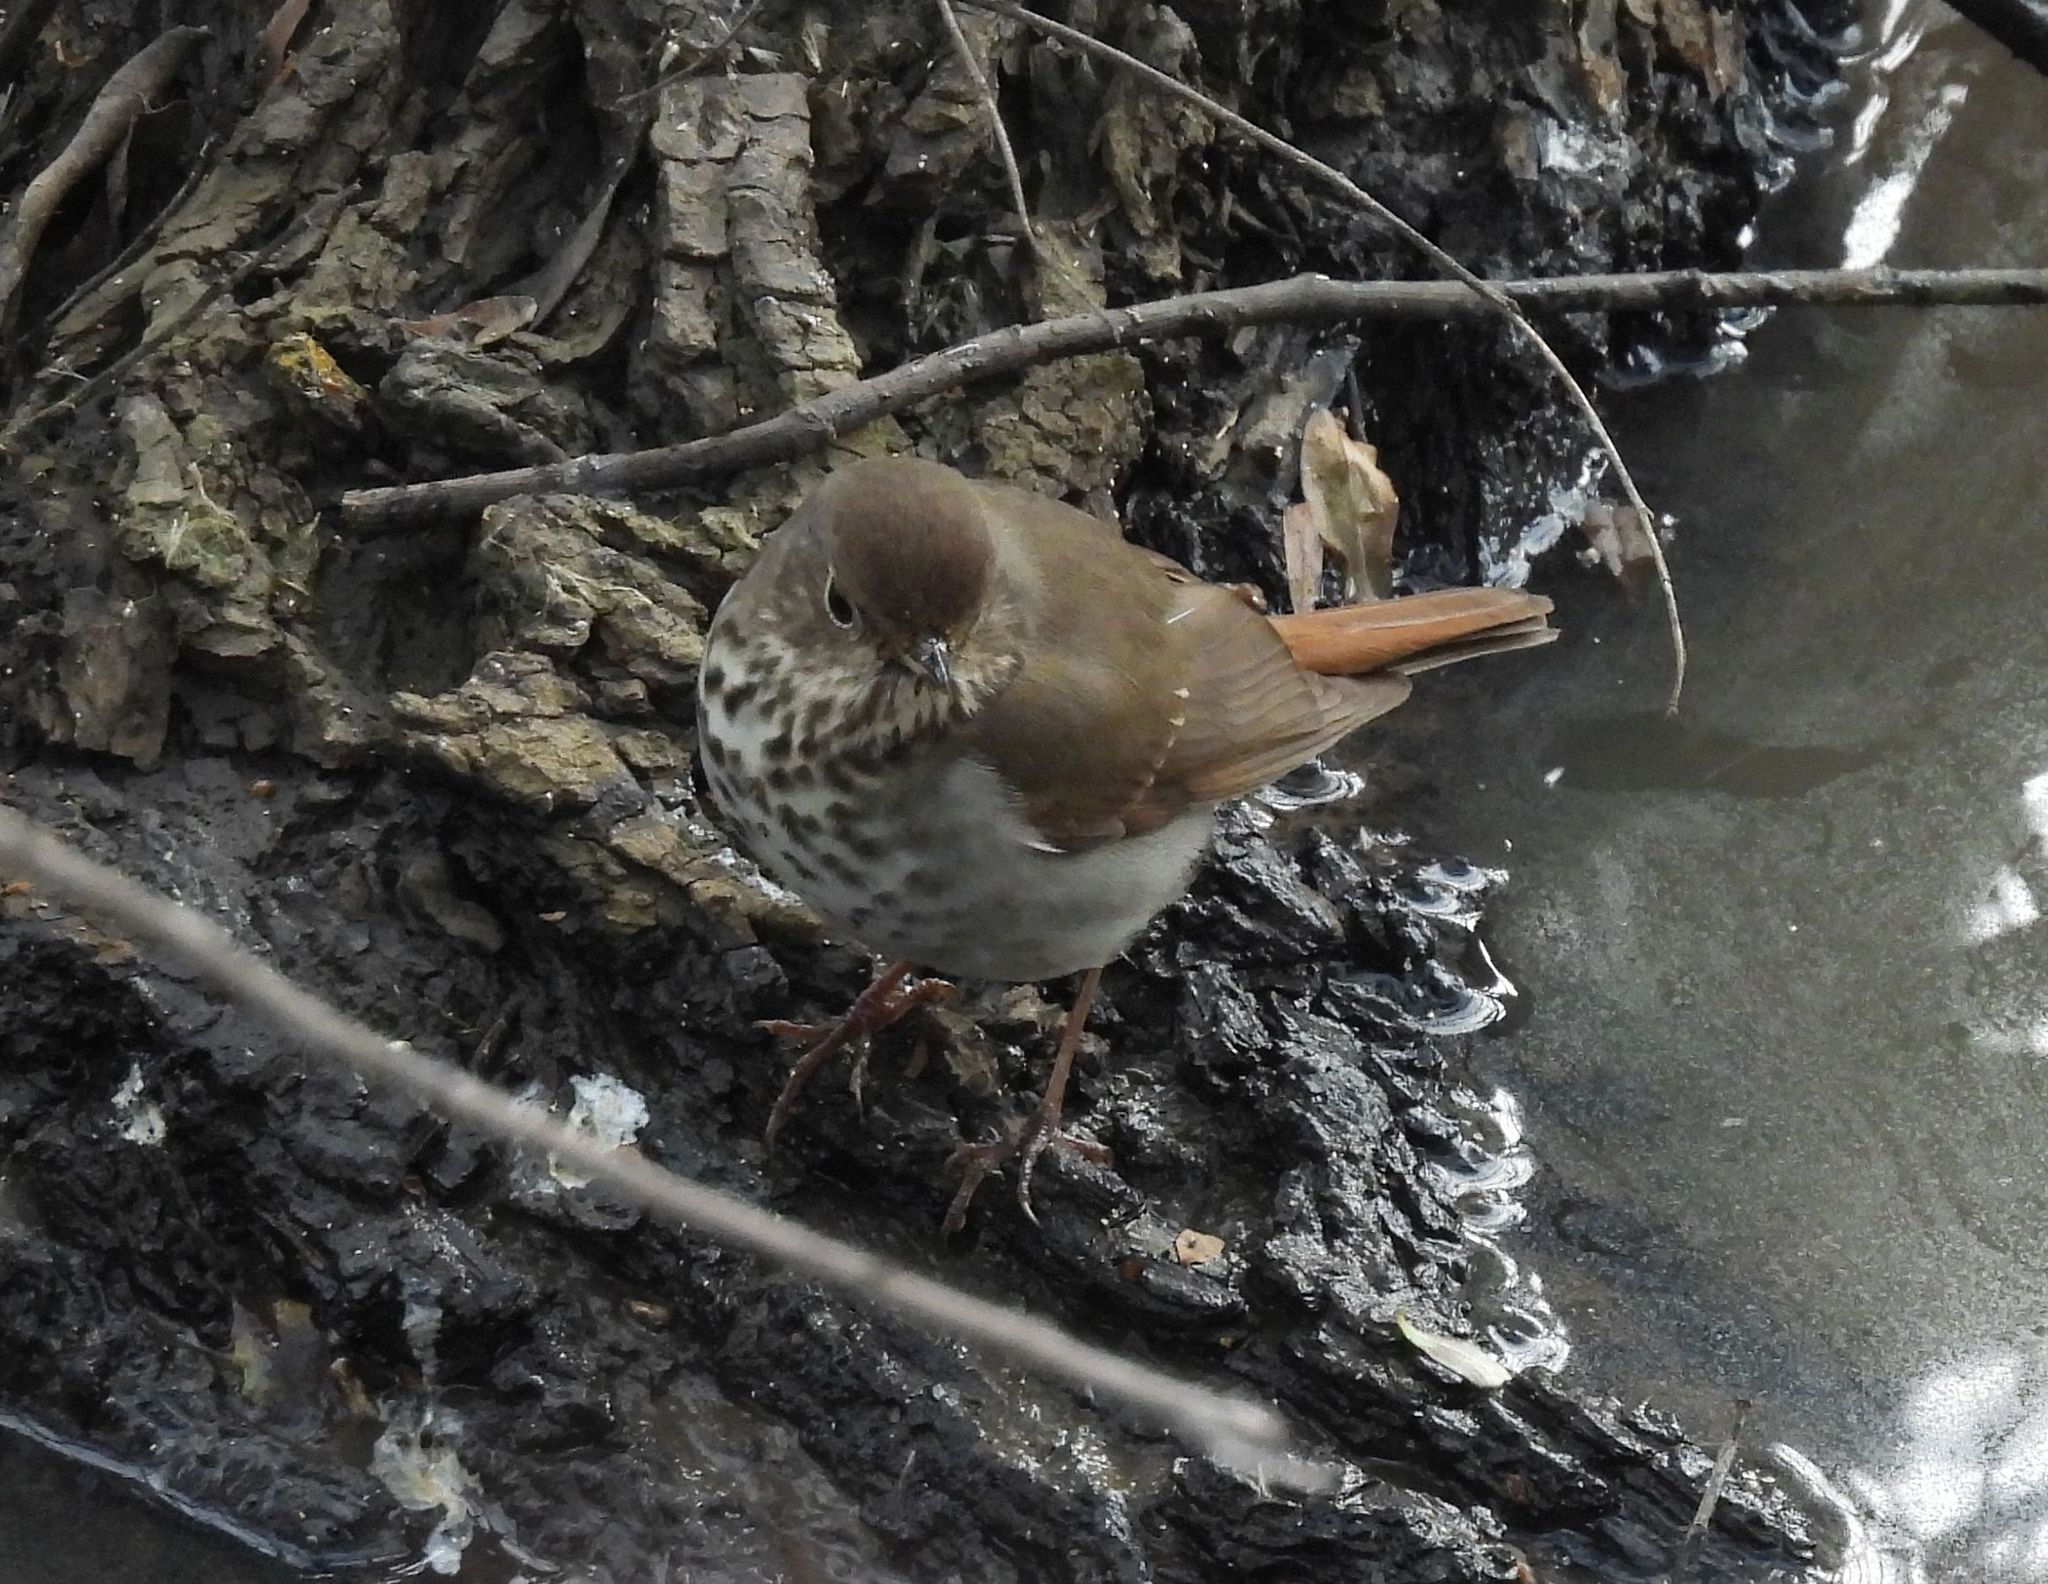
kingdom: Animalia
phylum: Chordata
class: Aves
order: Passeriformes
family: Turdidae
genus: Catharus
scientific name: Catharus guttatus
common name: Hermit thrush
